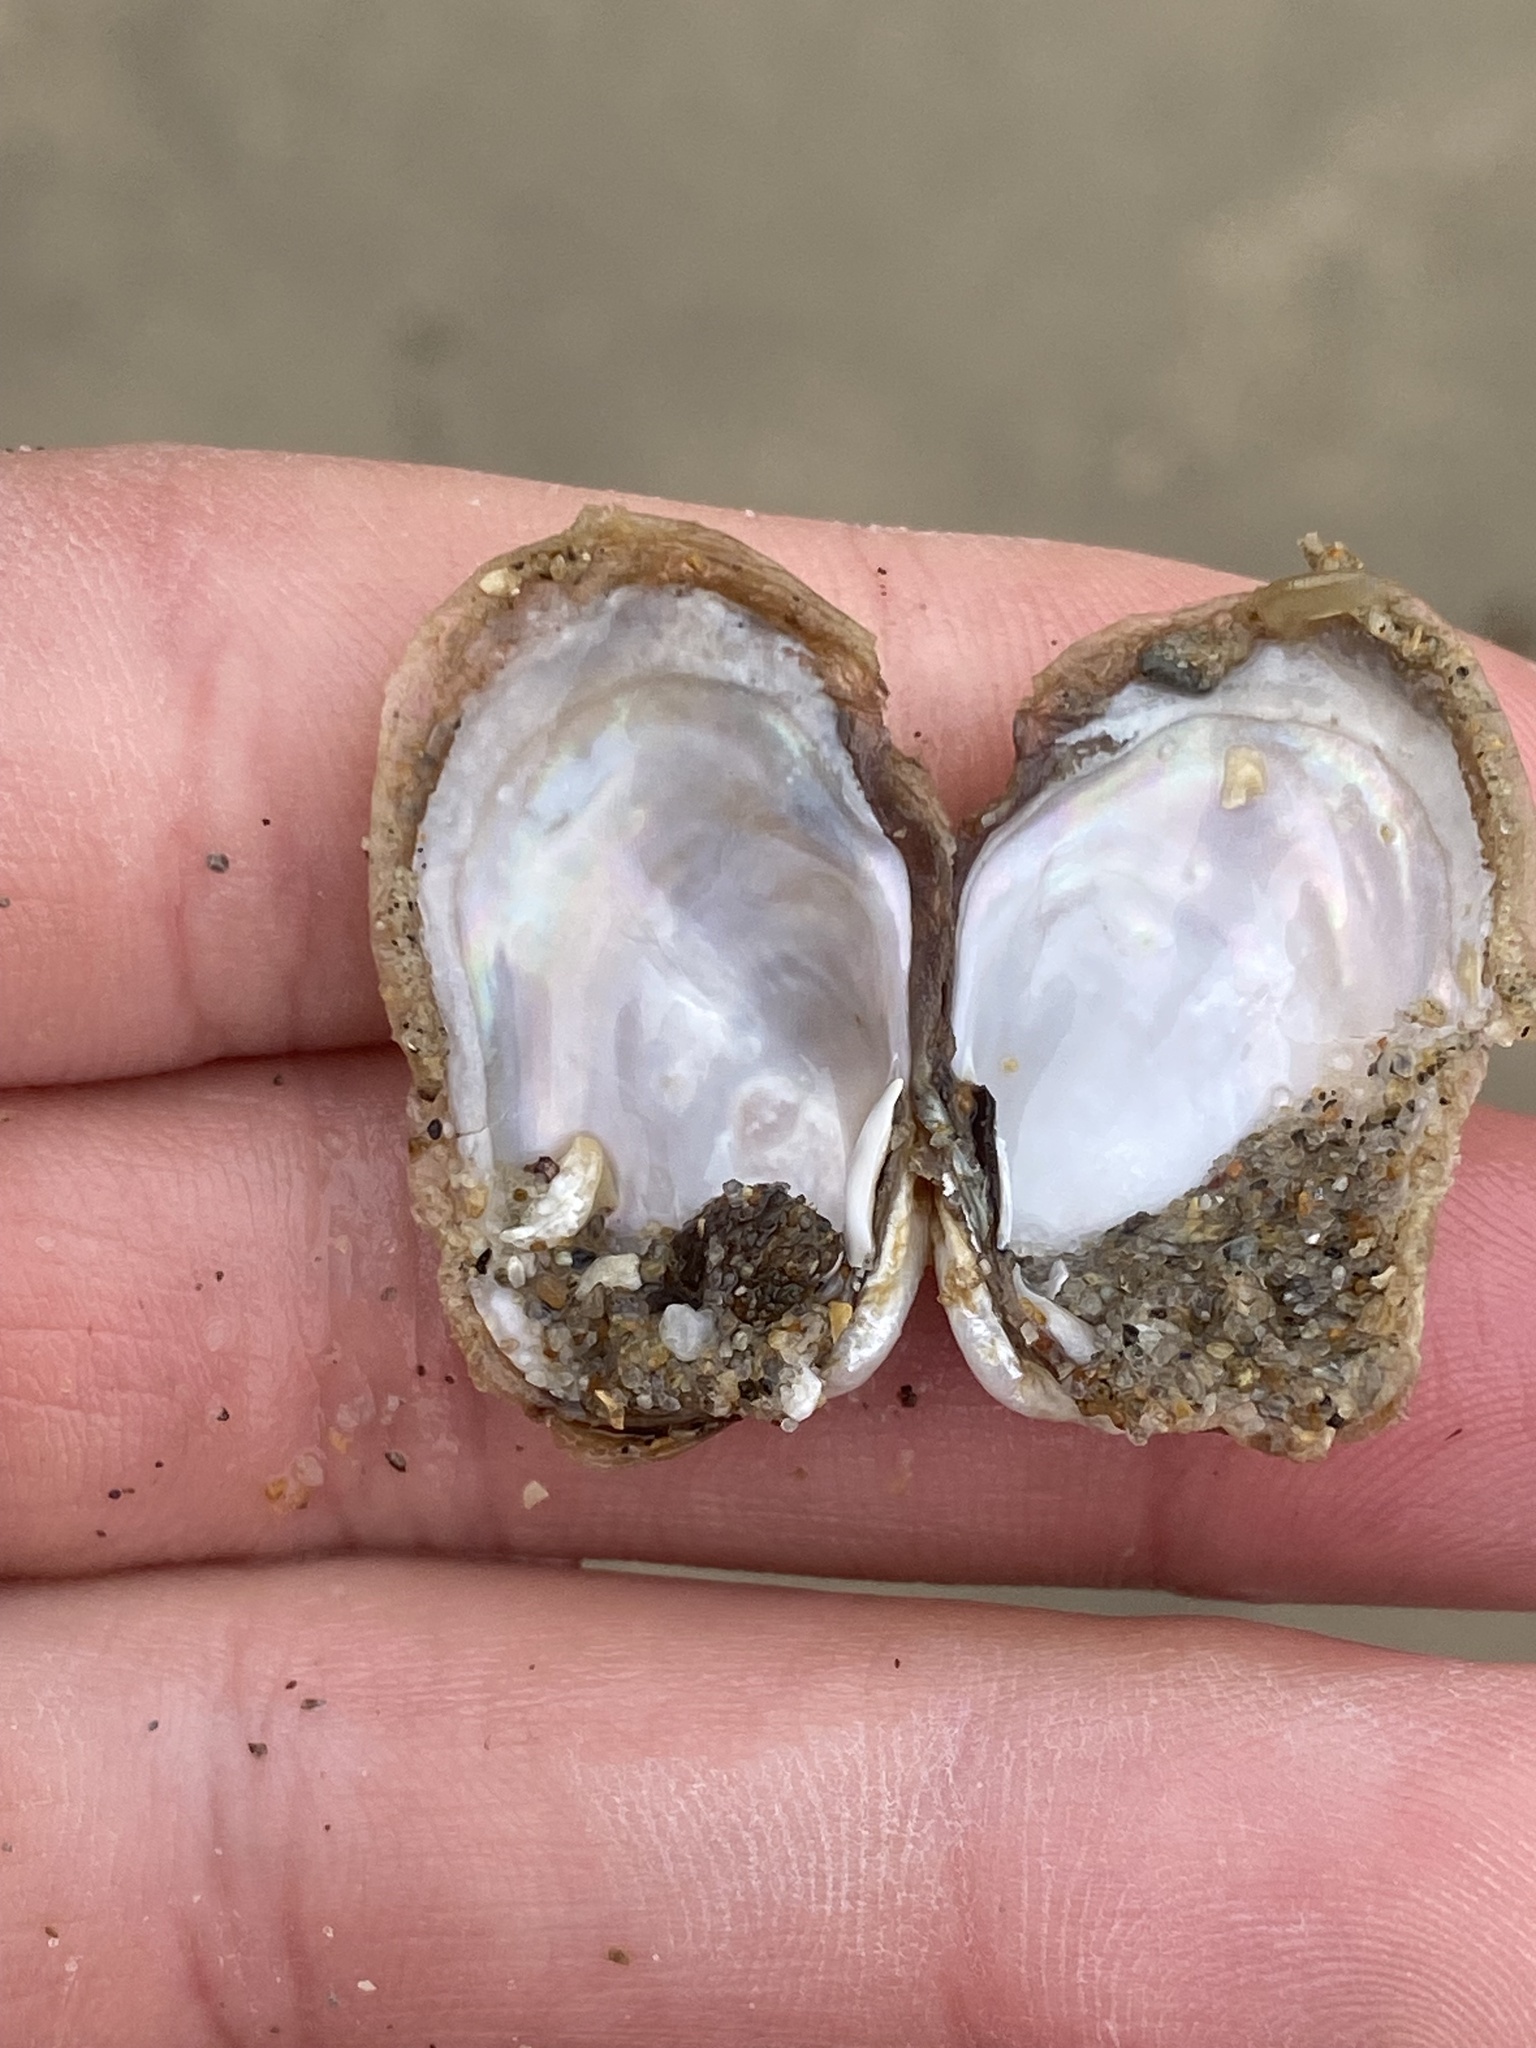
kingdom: Animalia
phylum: Mollusca
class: Bivalvia
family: Lyonsiidae
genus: Entodesma
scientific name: Entodesma navicula
